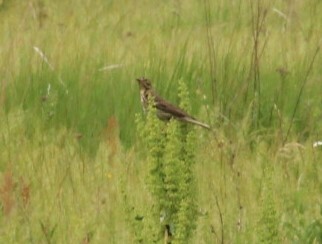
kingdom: Animalia
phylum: Chordata
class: Aves
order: Passeriformes
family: Motacillidae
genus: Anthus
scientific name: Anthus trivialis
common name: Tree pipit
